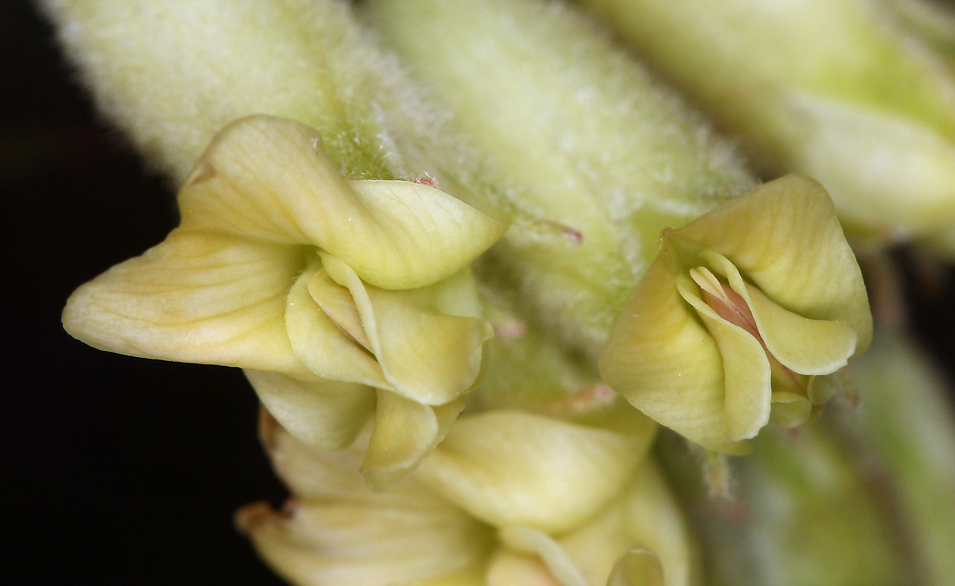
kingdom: Plantae
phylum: Tracheophyta
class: Magnoliopsida
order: Fabales
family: Fabaceae
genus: Astragalus
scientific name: Astragalus gibbsii
